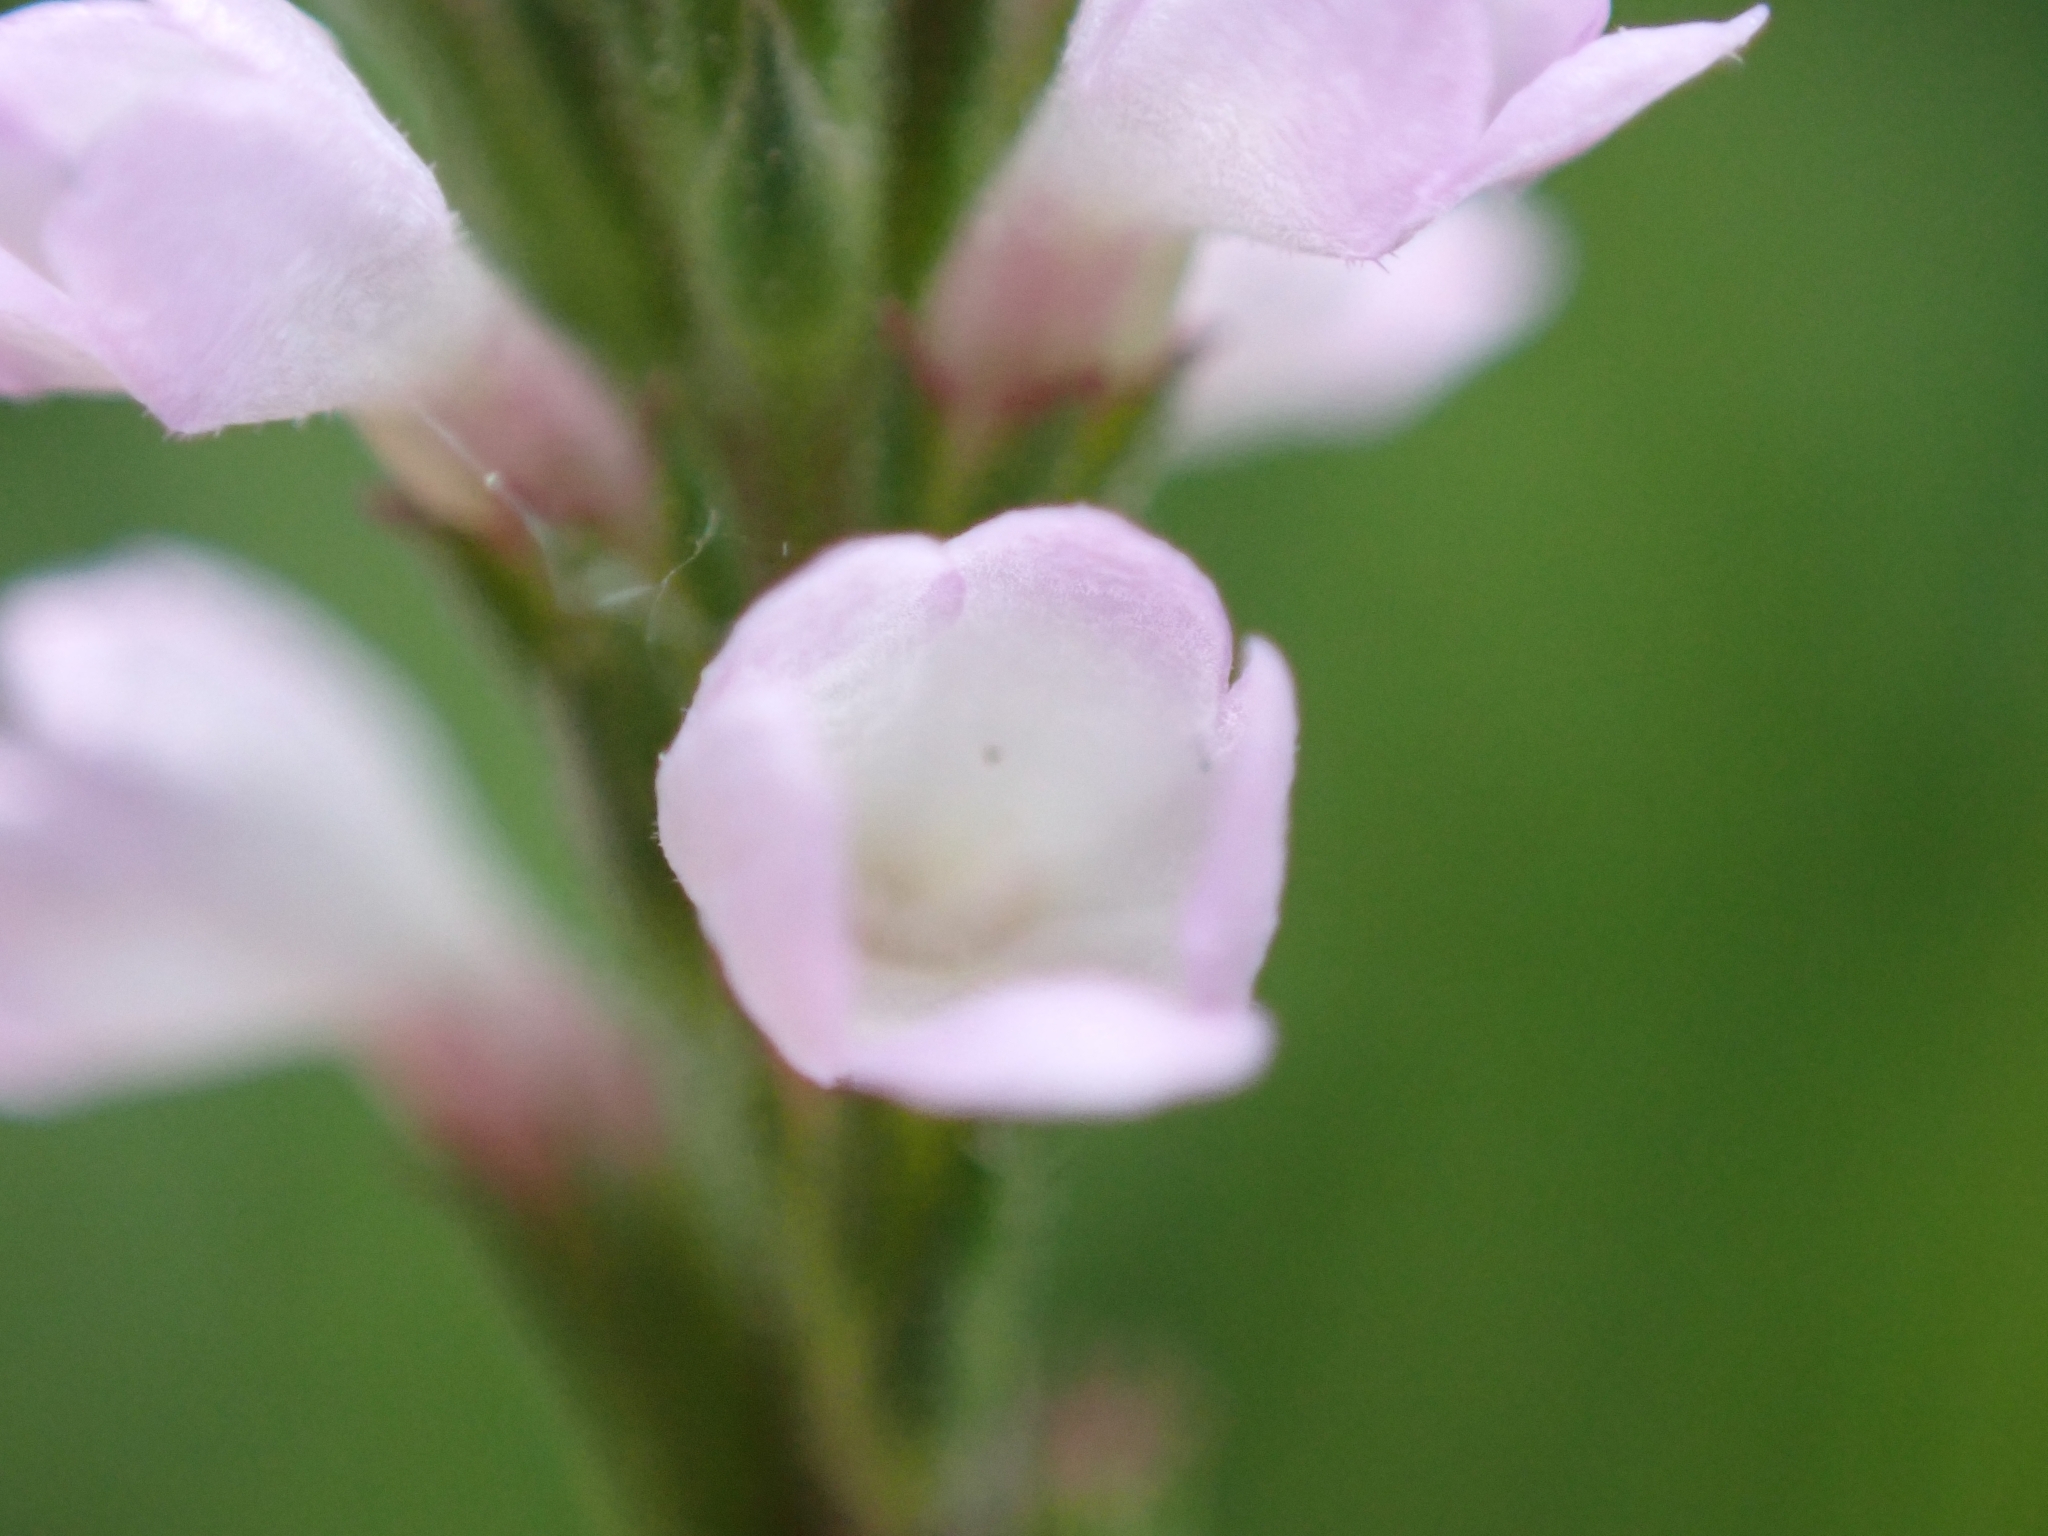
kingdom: Plantae
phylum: Tracheophyta
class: Magnoliopsida
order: Lamiales
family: Verbenaceae
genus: Verbena
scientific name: Verbena officinalis
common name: Vervain
